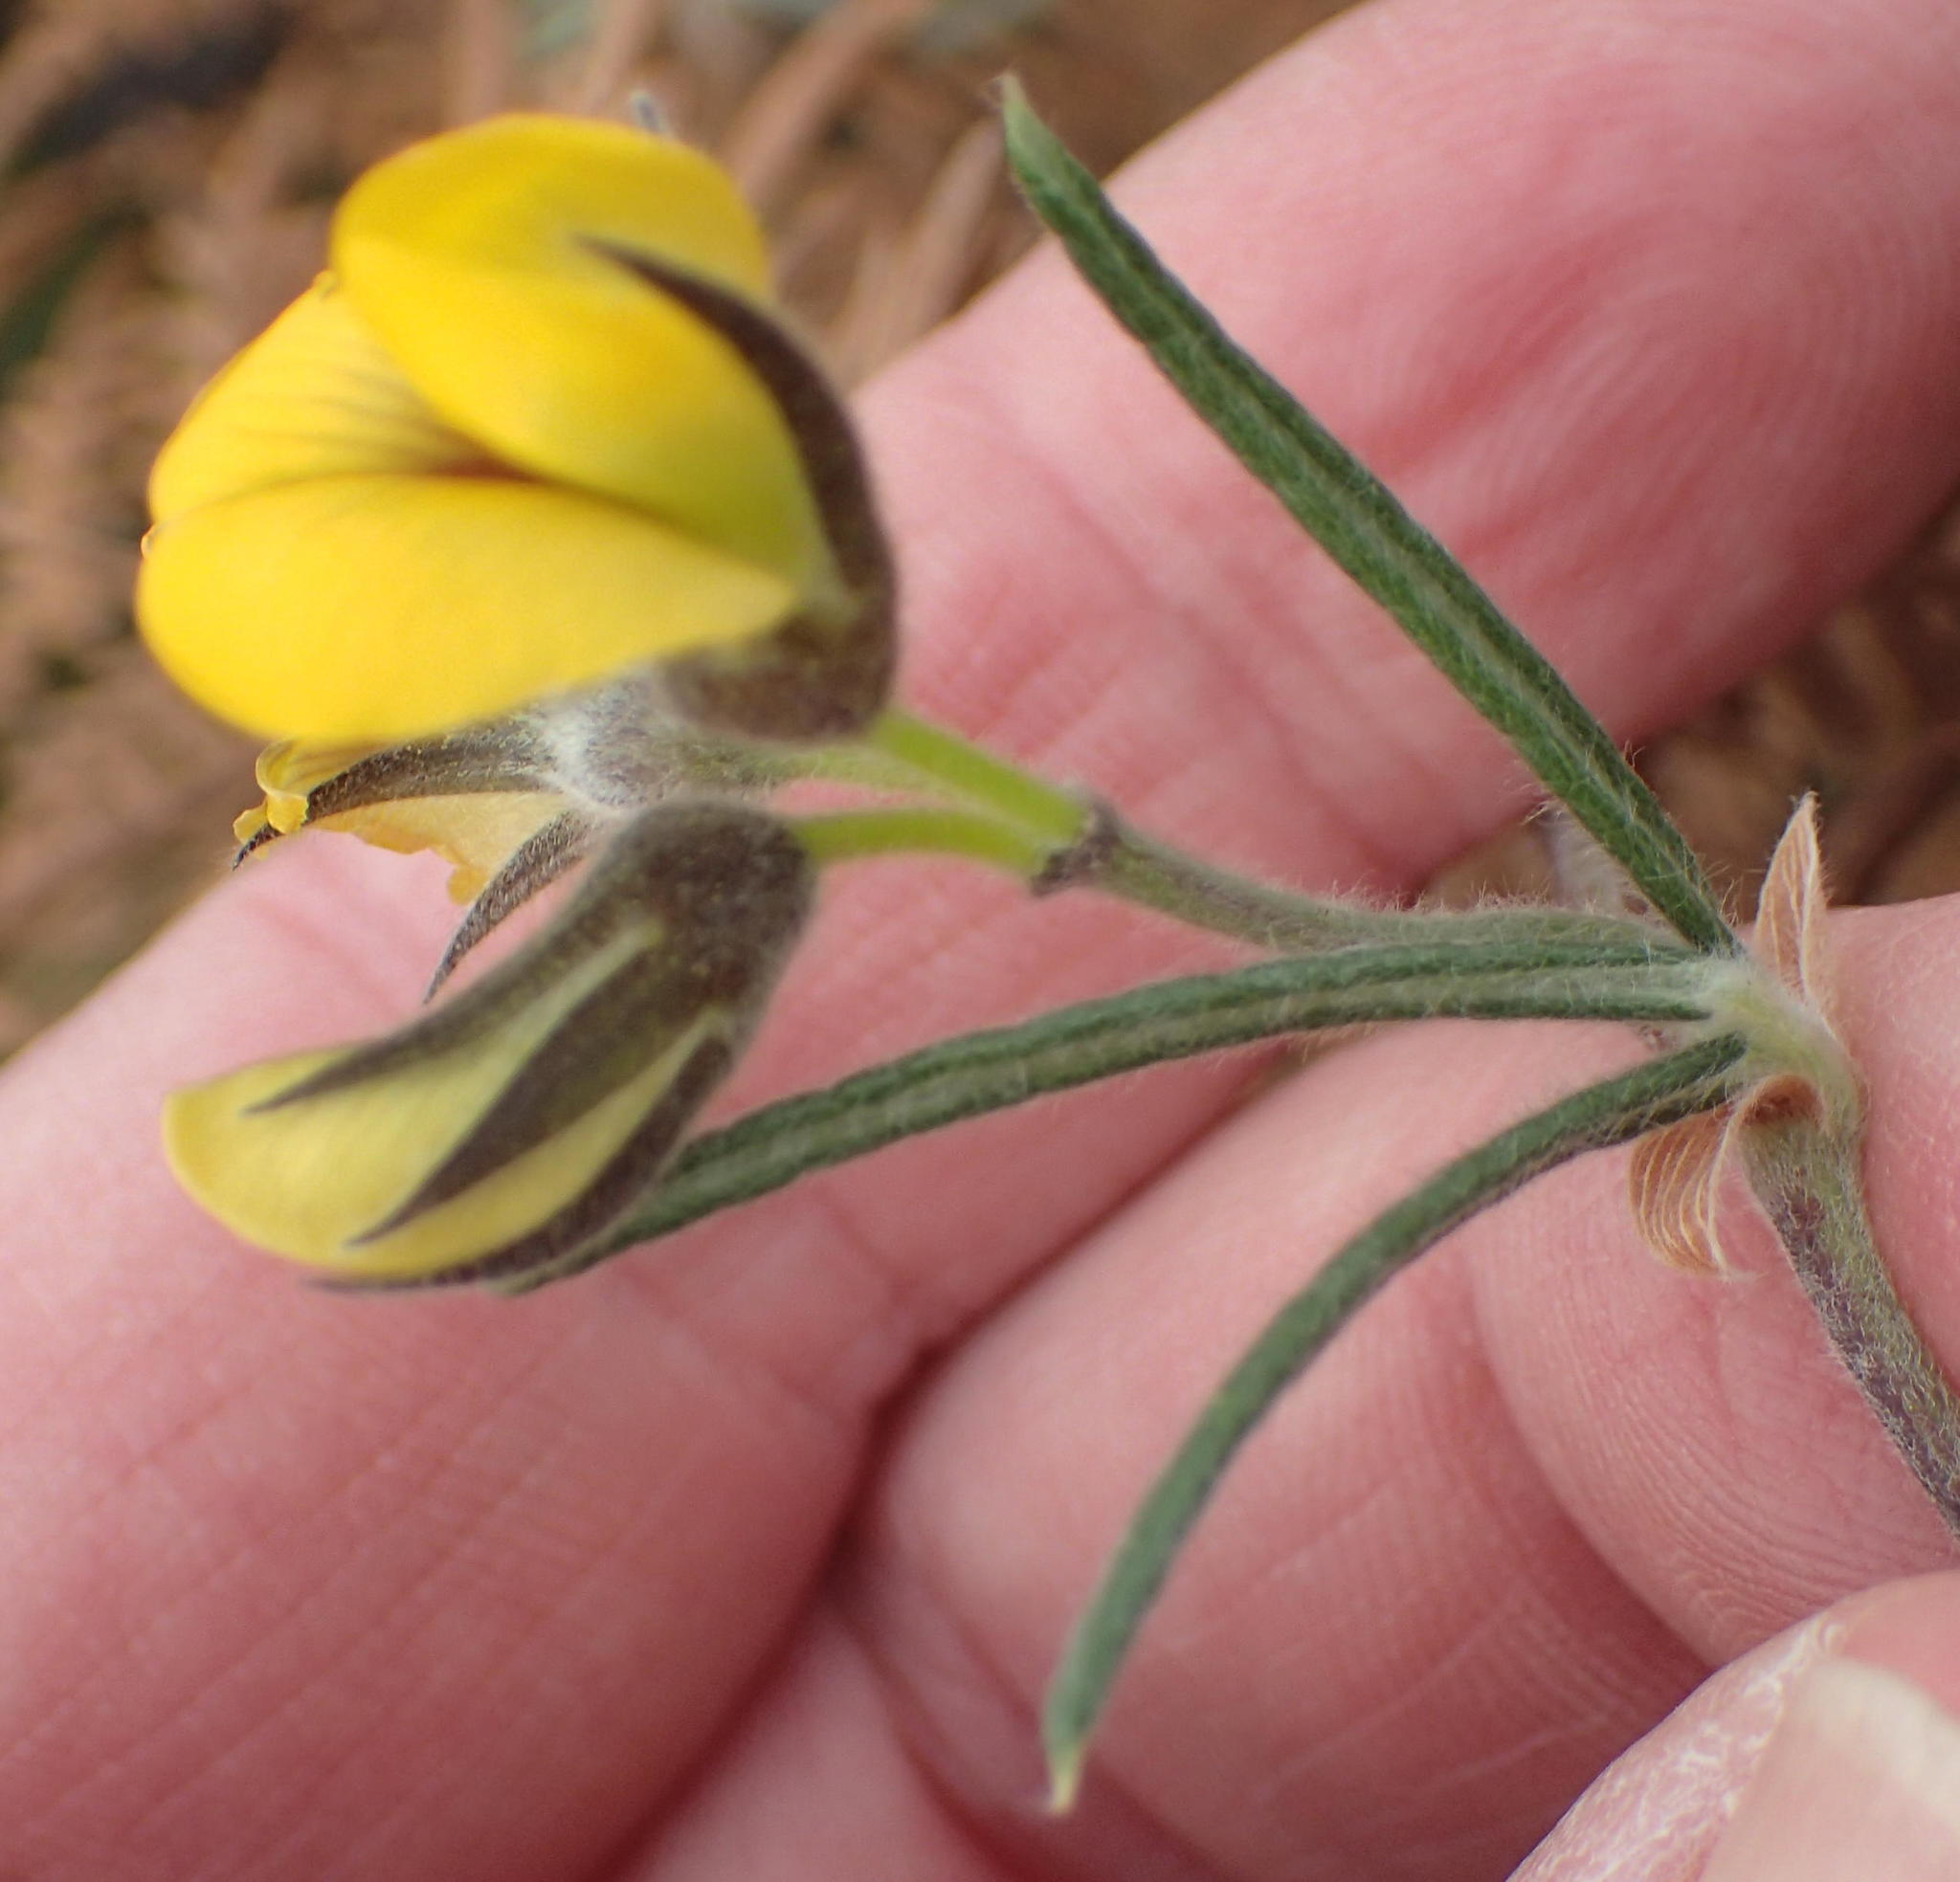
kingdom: Plantae
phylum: Tracheophyta
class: Magnoliopsida
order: Fabales
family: Fabaceae
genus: Rhynchosia
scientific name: Rhynchosia chrysoscias
